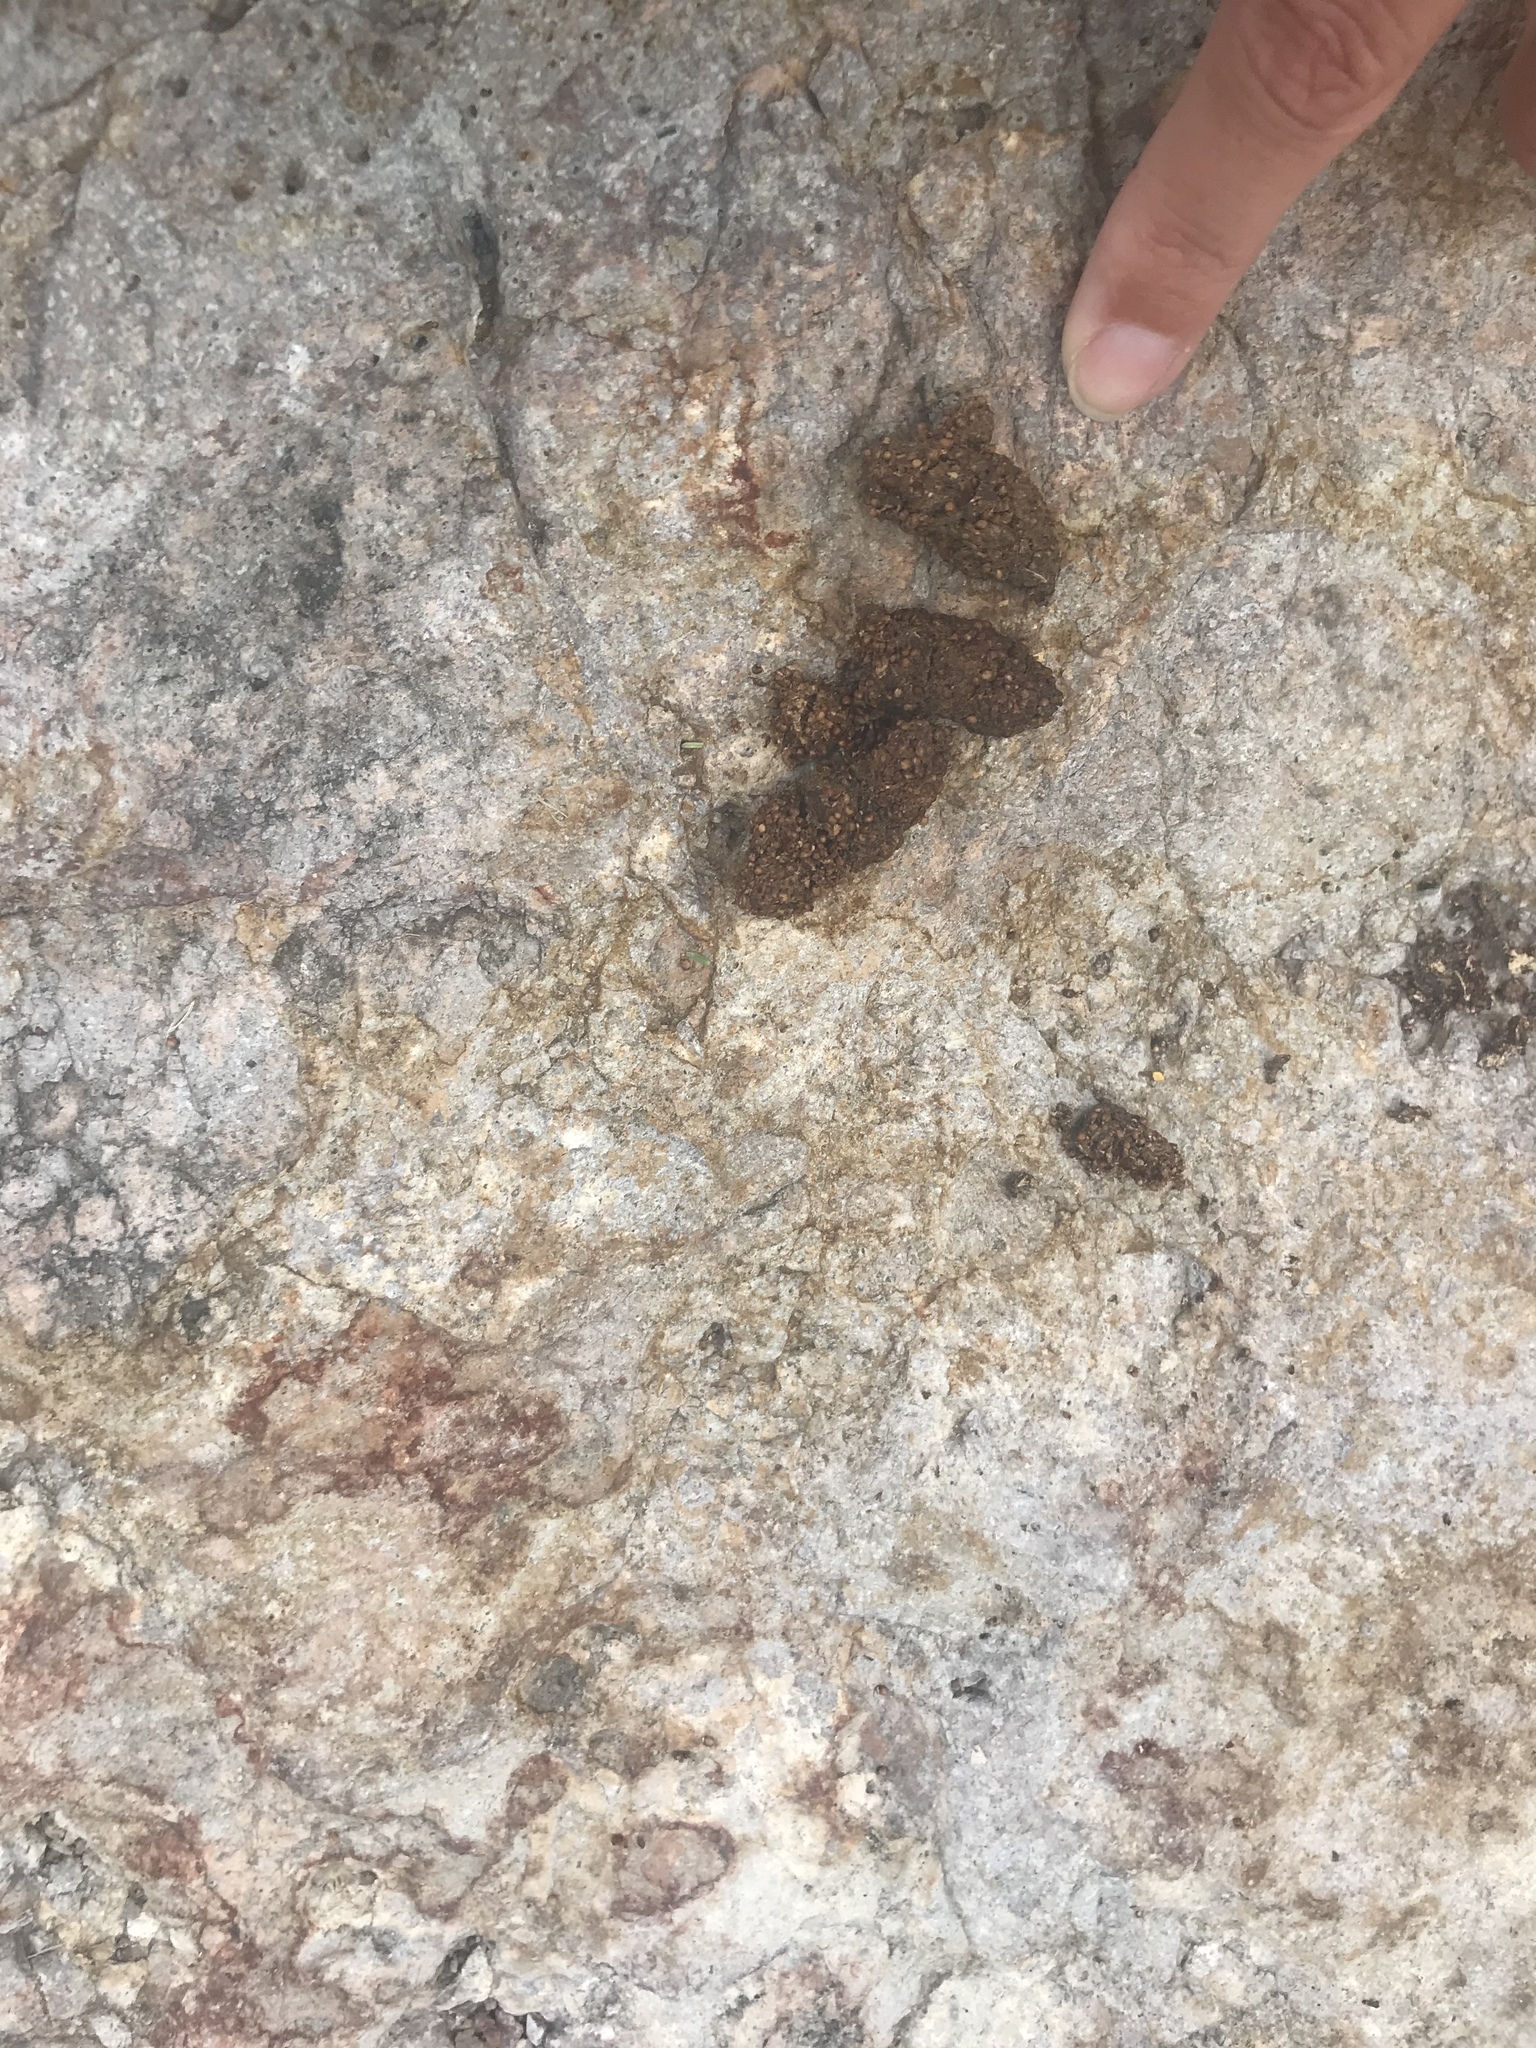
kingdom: Animalia
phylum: Chordata
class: Mammalia
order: Carnivora
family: Procyonidae
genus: Bassariscus
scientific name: Bassariscus astutus
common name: Ringtail
